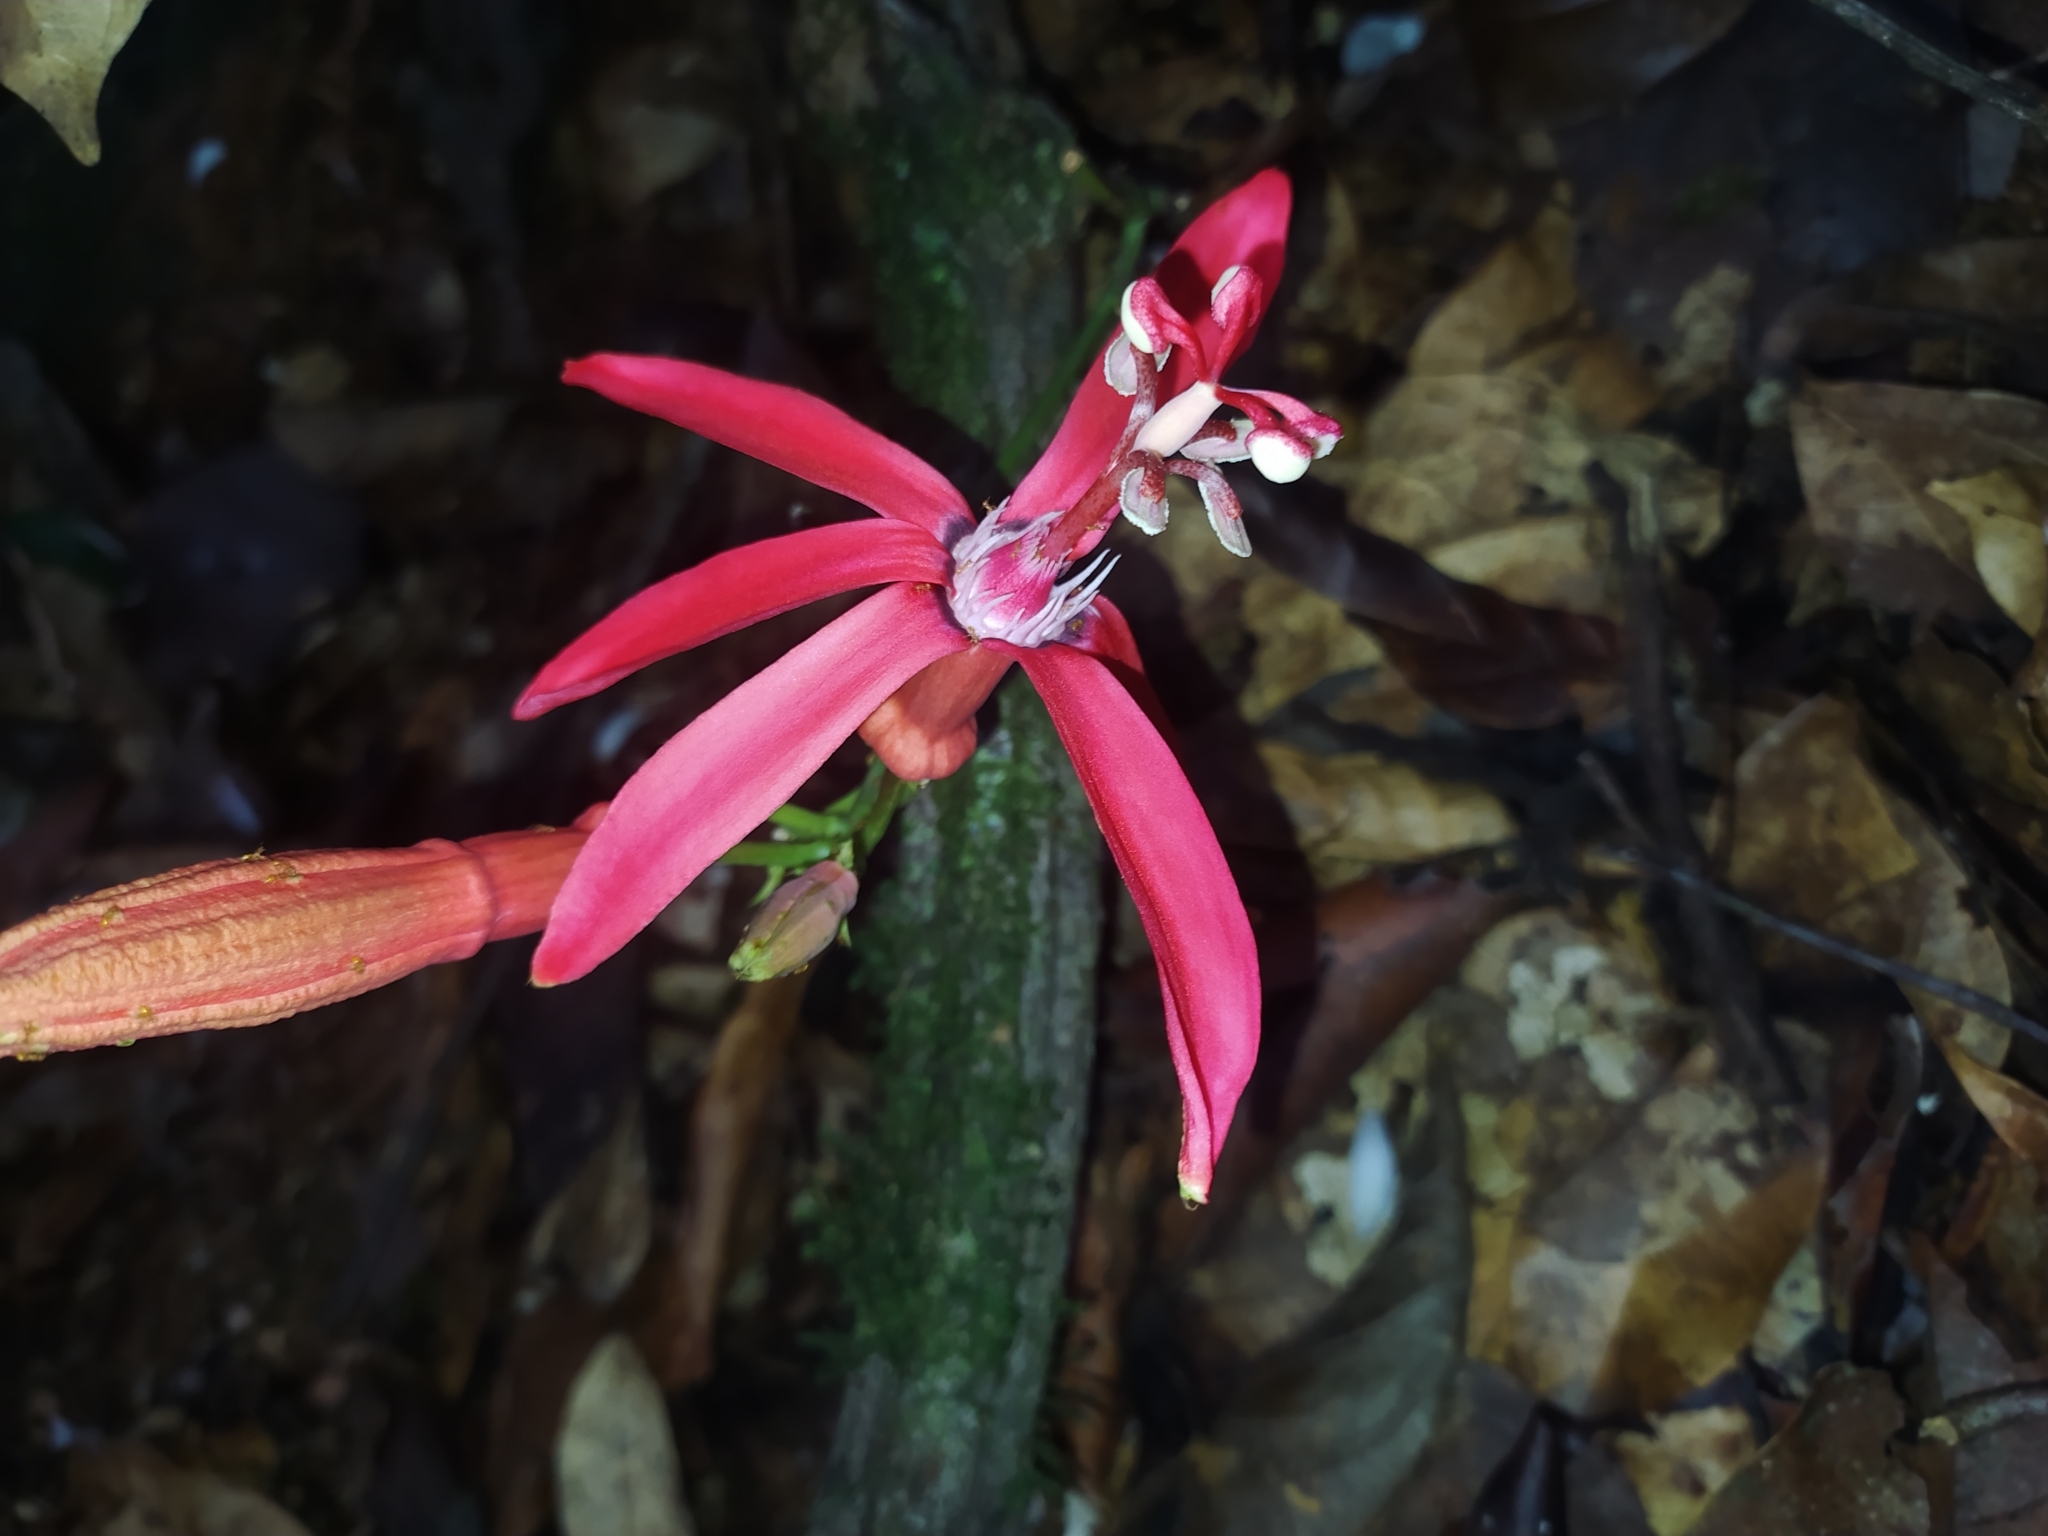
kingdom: Plantae
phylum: Tracheophyta
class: Magnoliopsida
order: Malpighiales
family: Passifloraceae
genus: Passiflora
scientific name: Passiflora glandulosa
